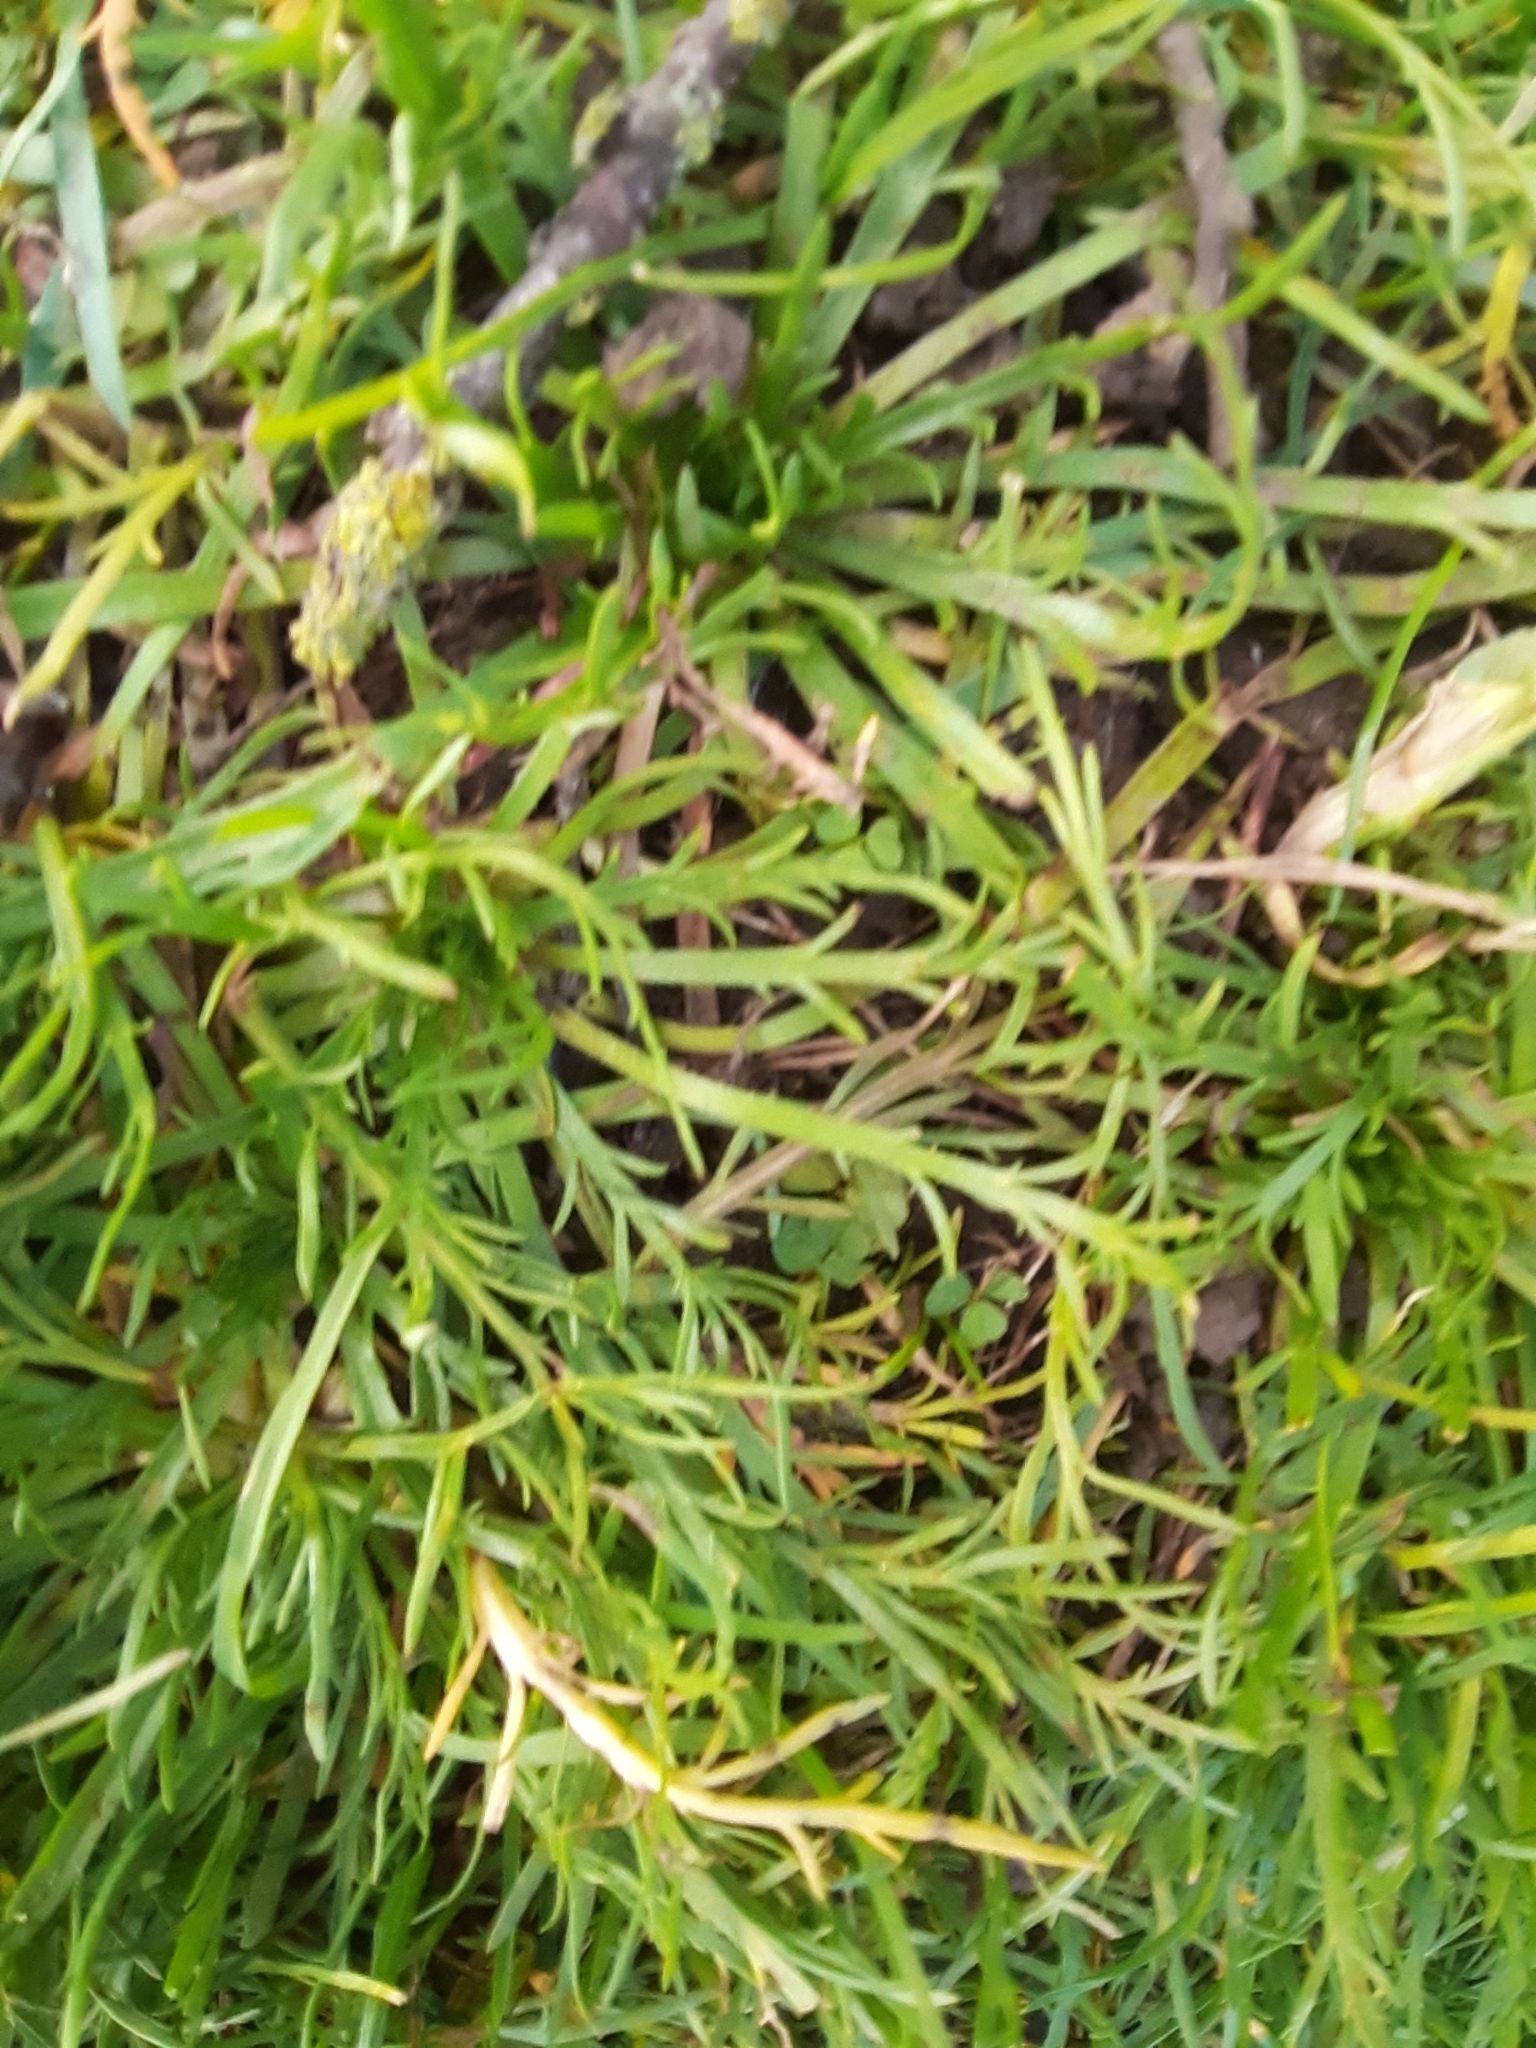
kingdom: Plantae
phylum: Tracheophyta
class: Magnoliopsida
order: Lamiales
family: Plantaginaceae
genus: Plantago
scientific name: Plantago coronopus
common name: Buck's-horn plantain
